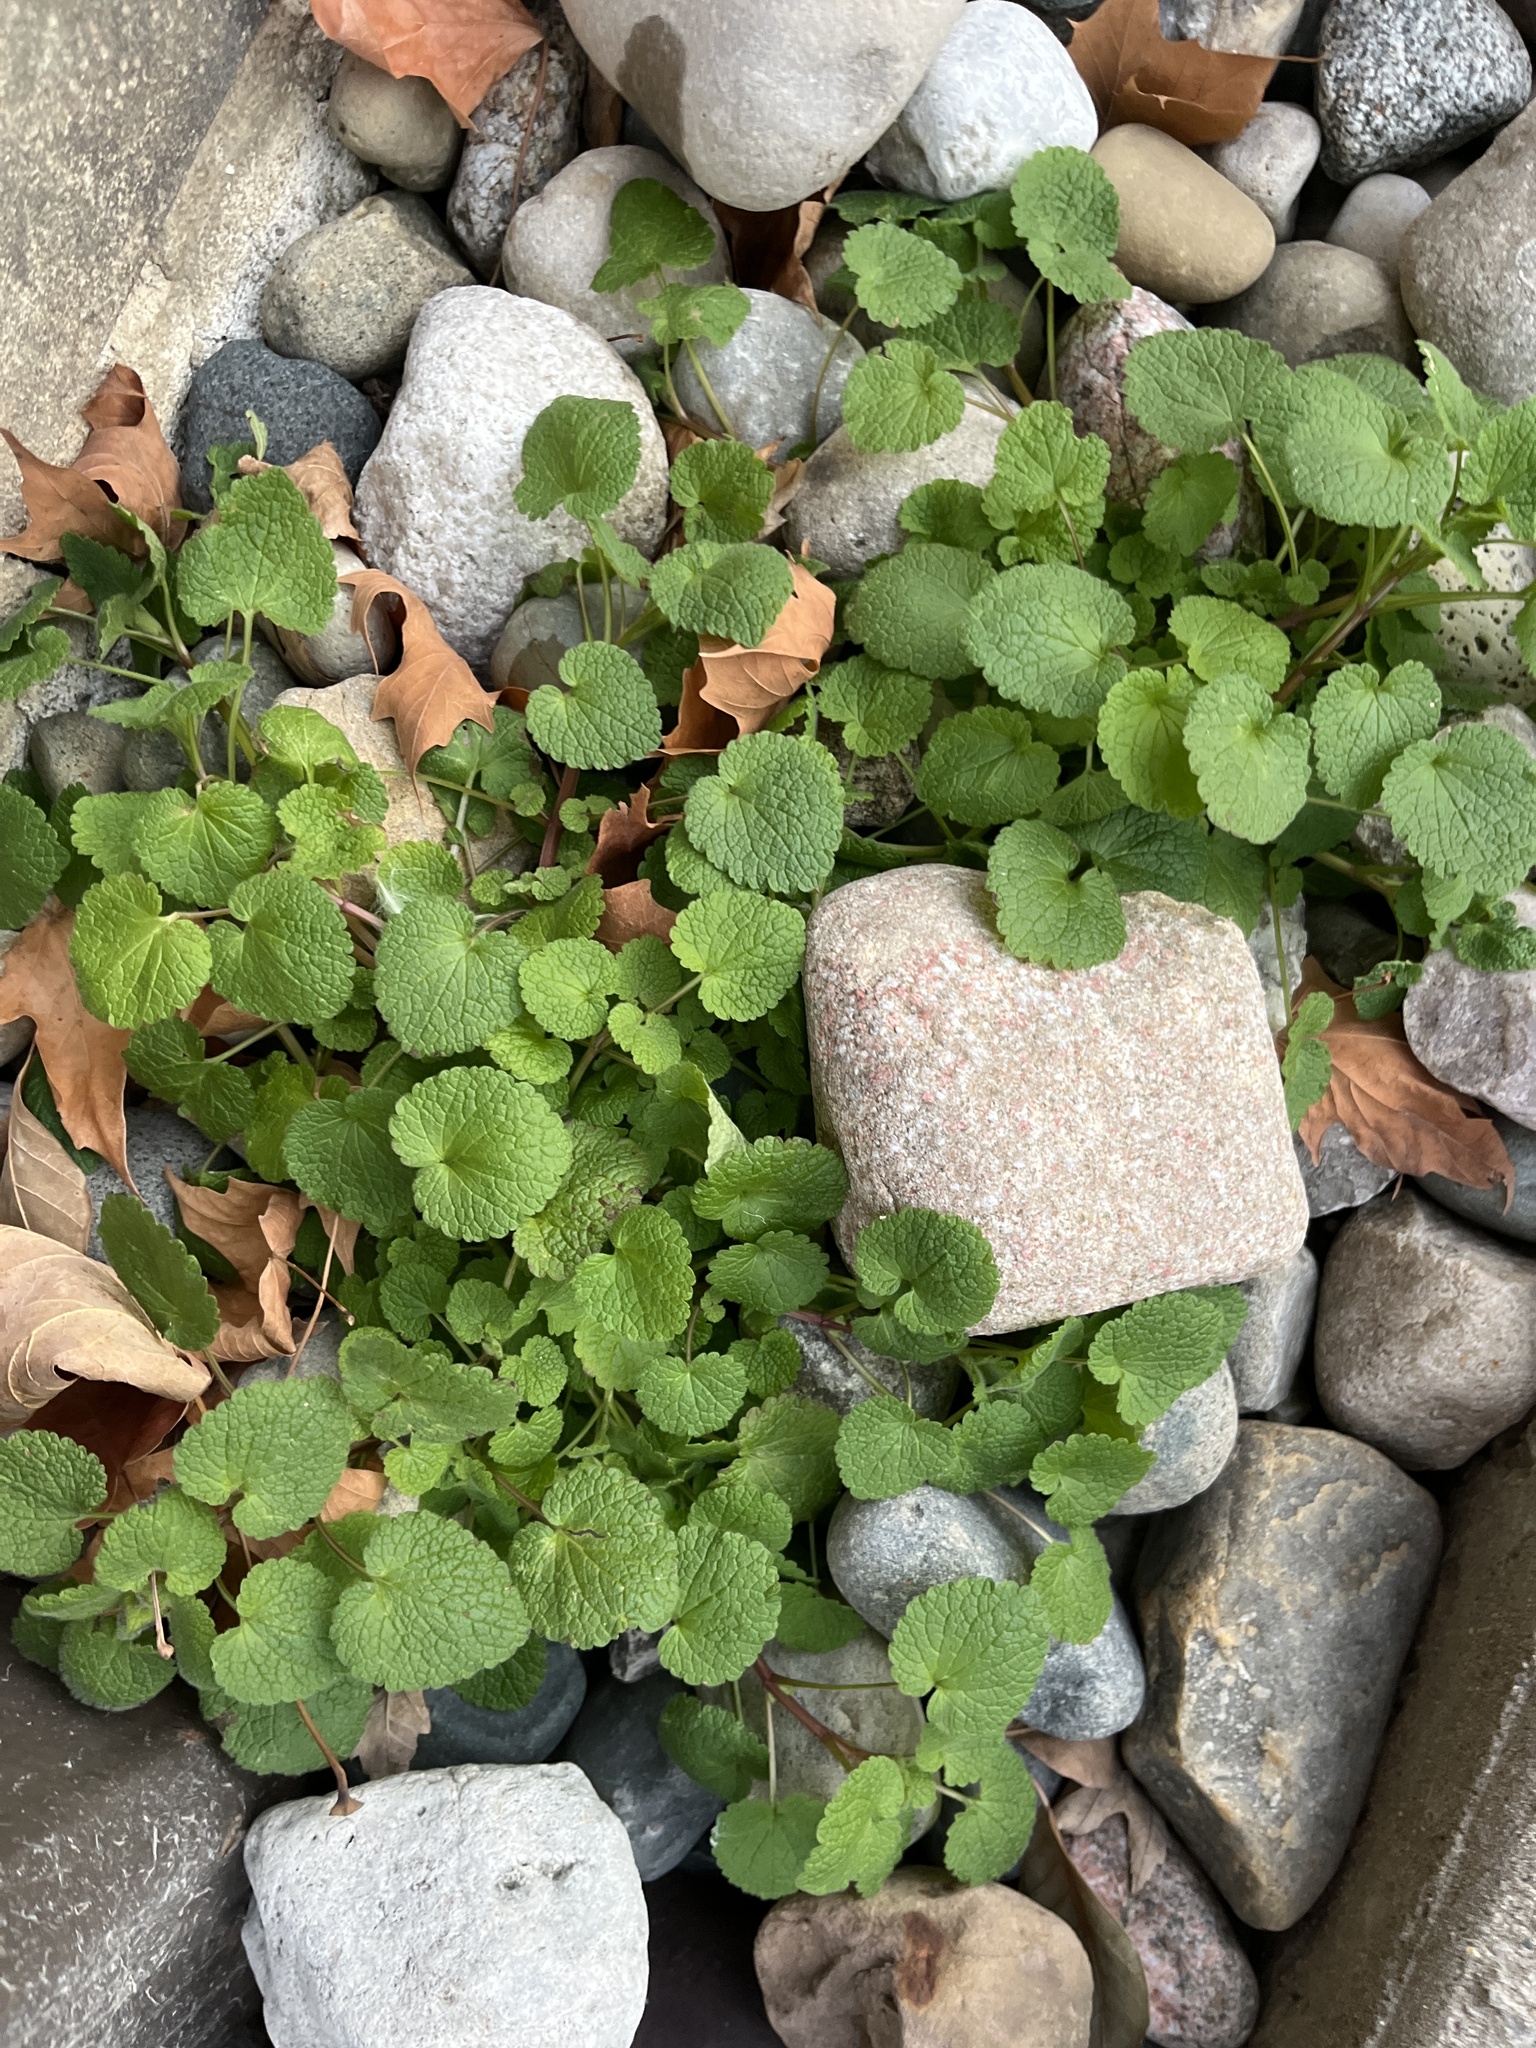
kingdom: Plantae
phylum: Tracheophyta
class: Magnoliopsida
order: Lamiales
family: Lamiaceae
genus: Lamium
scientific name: Lamium purpureum
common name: Red dead-nettle
